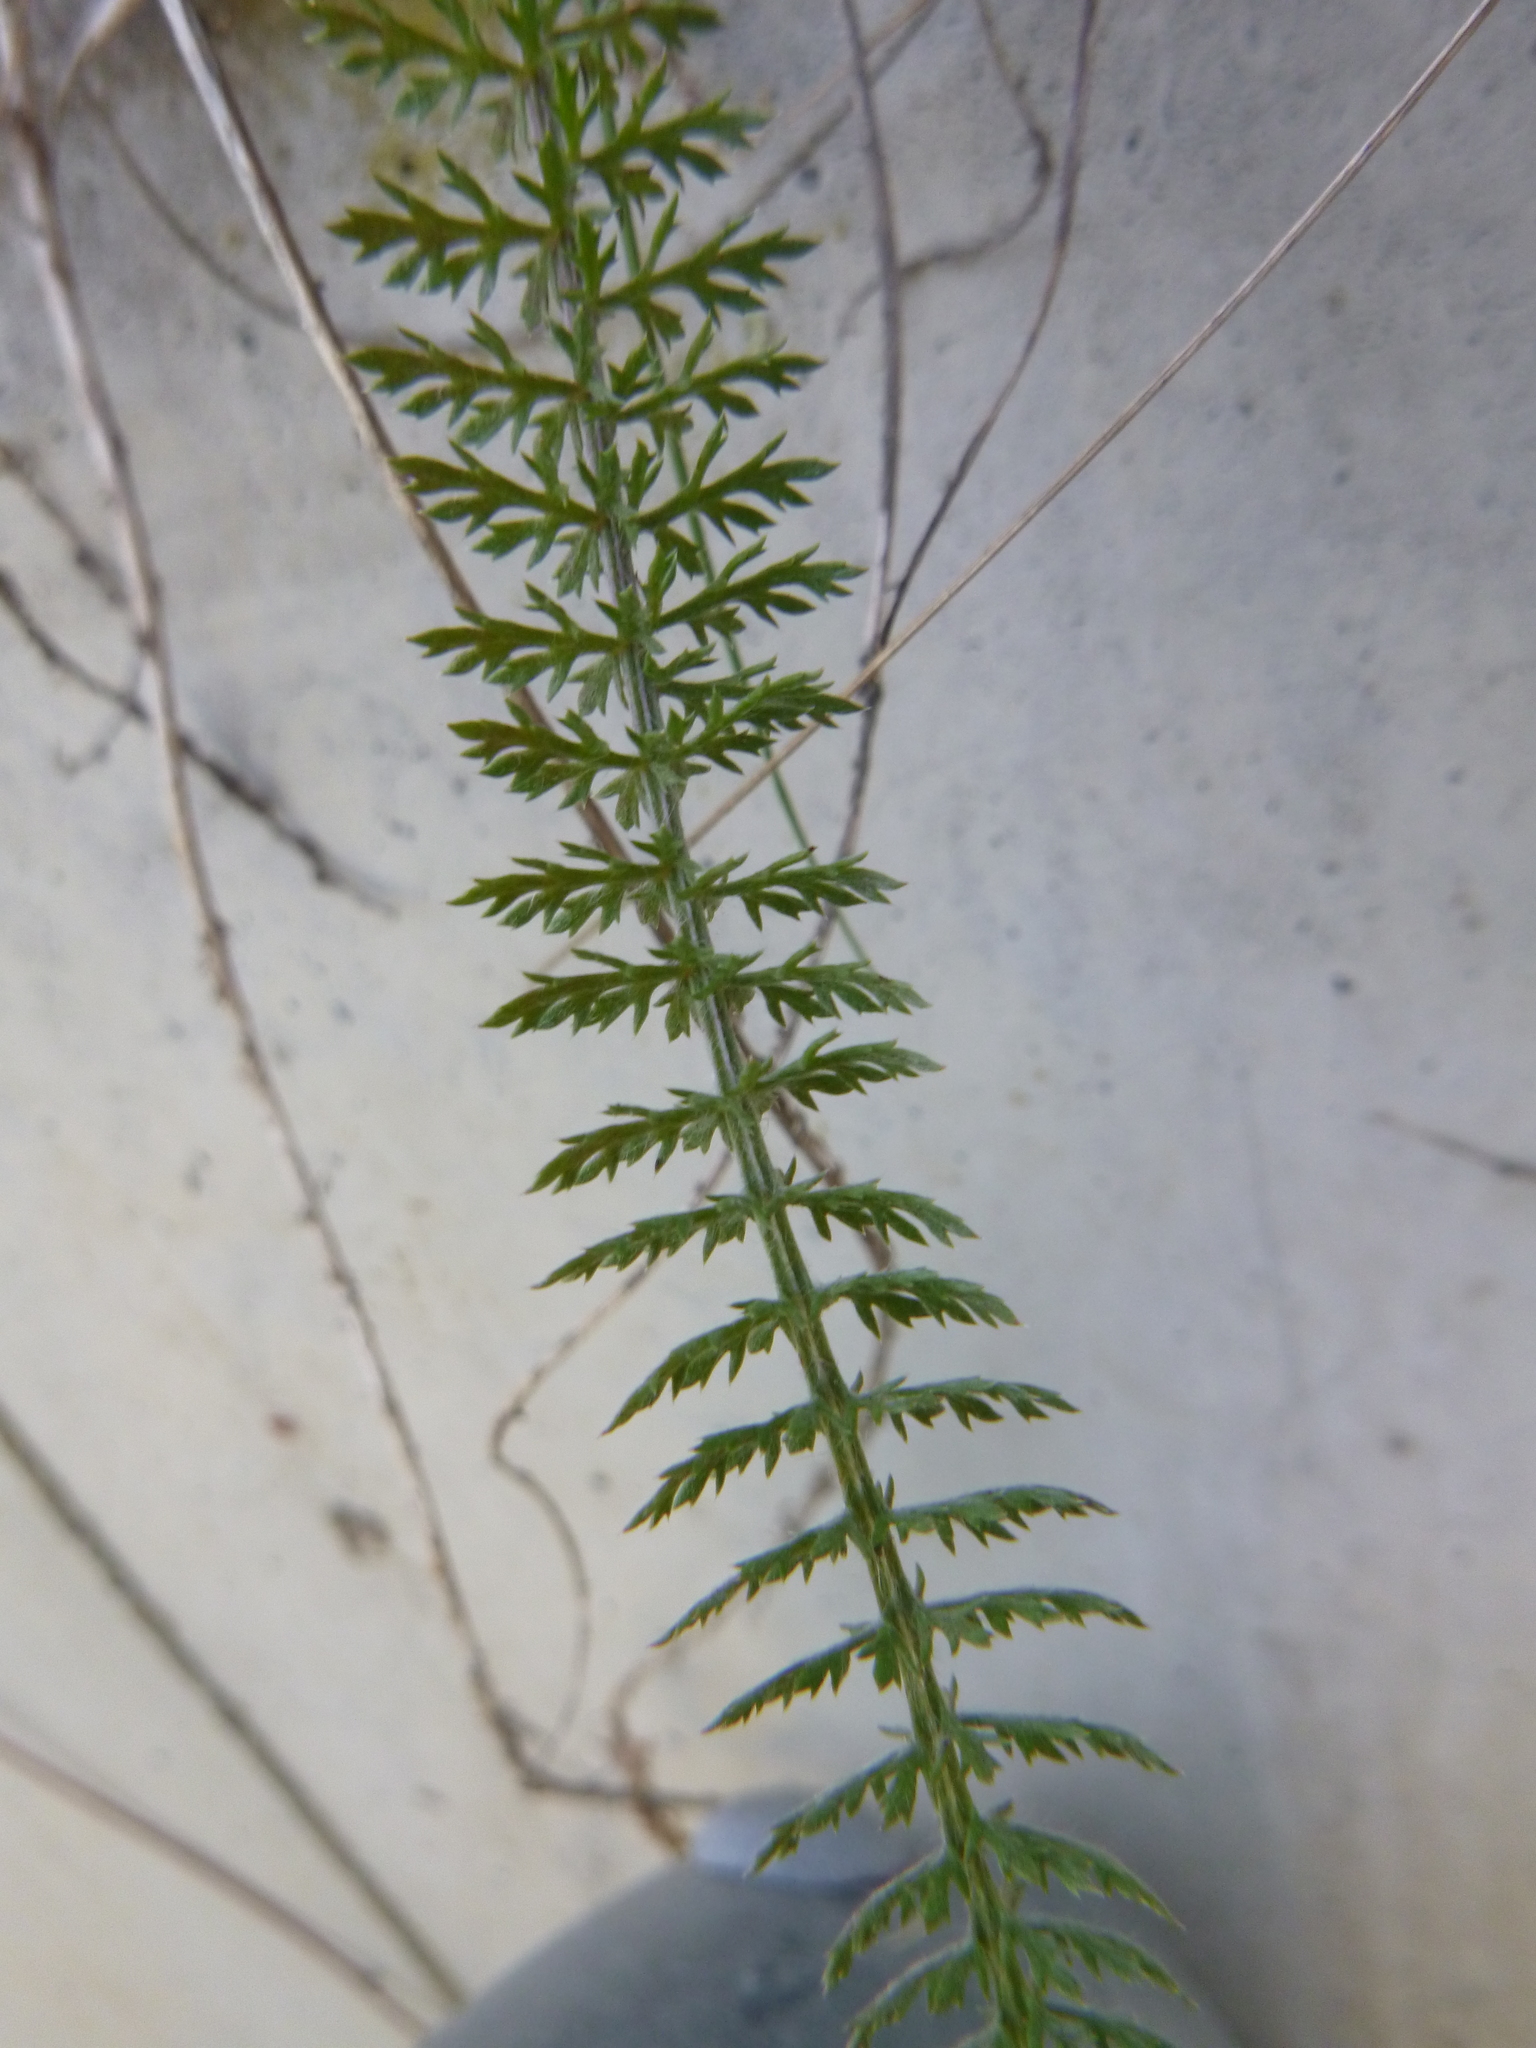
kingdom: Plantae
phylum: Tracheophyta
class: Magnoliopsida
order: Asterales
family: Asteraceae
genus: Achillea
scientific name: Achillea millefolium
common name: Yarrow
